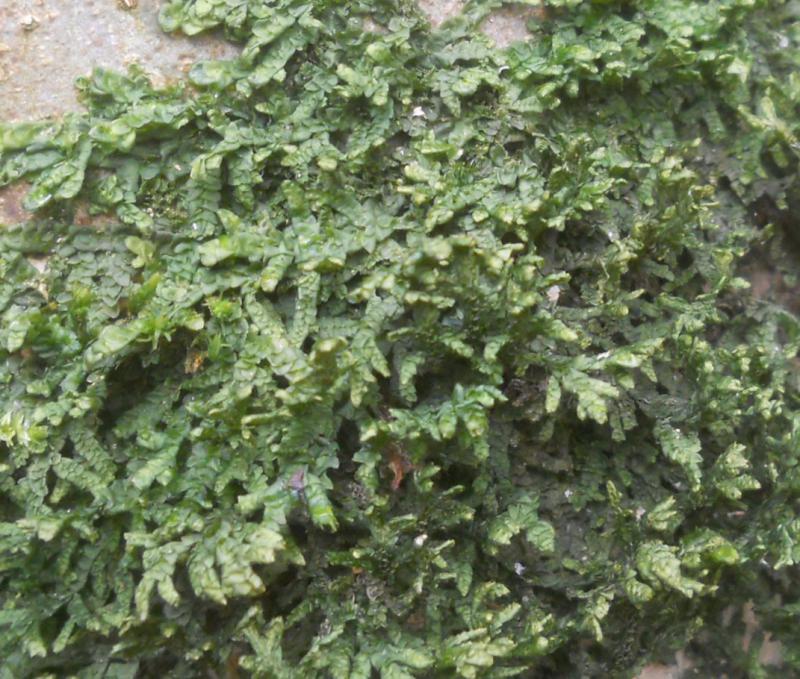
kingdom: Plantae
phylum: Marchantiophyta
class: Jungermanniopsida
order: Porellales
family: Porellaceae
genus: Porella
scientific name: Porella platyphylla
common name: Wall scalewort
